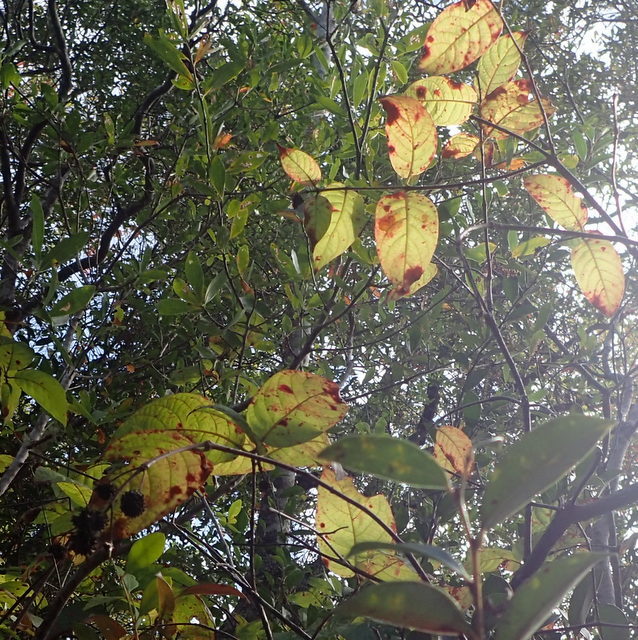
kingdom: Plantae
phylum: Tracheophyta
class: Magnoliopsida
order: Gentianales
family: Rubiaceae
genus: Cephalanthus
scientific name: Cephalanthus occidentalis
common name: Button-willow
